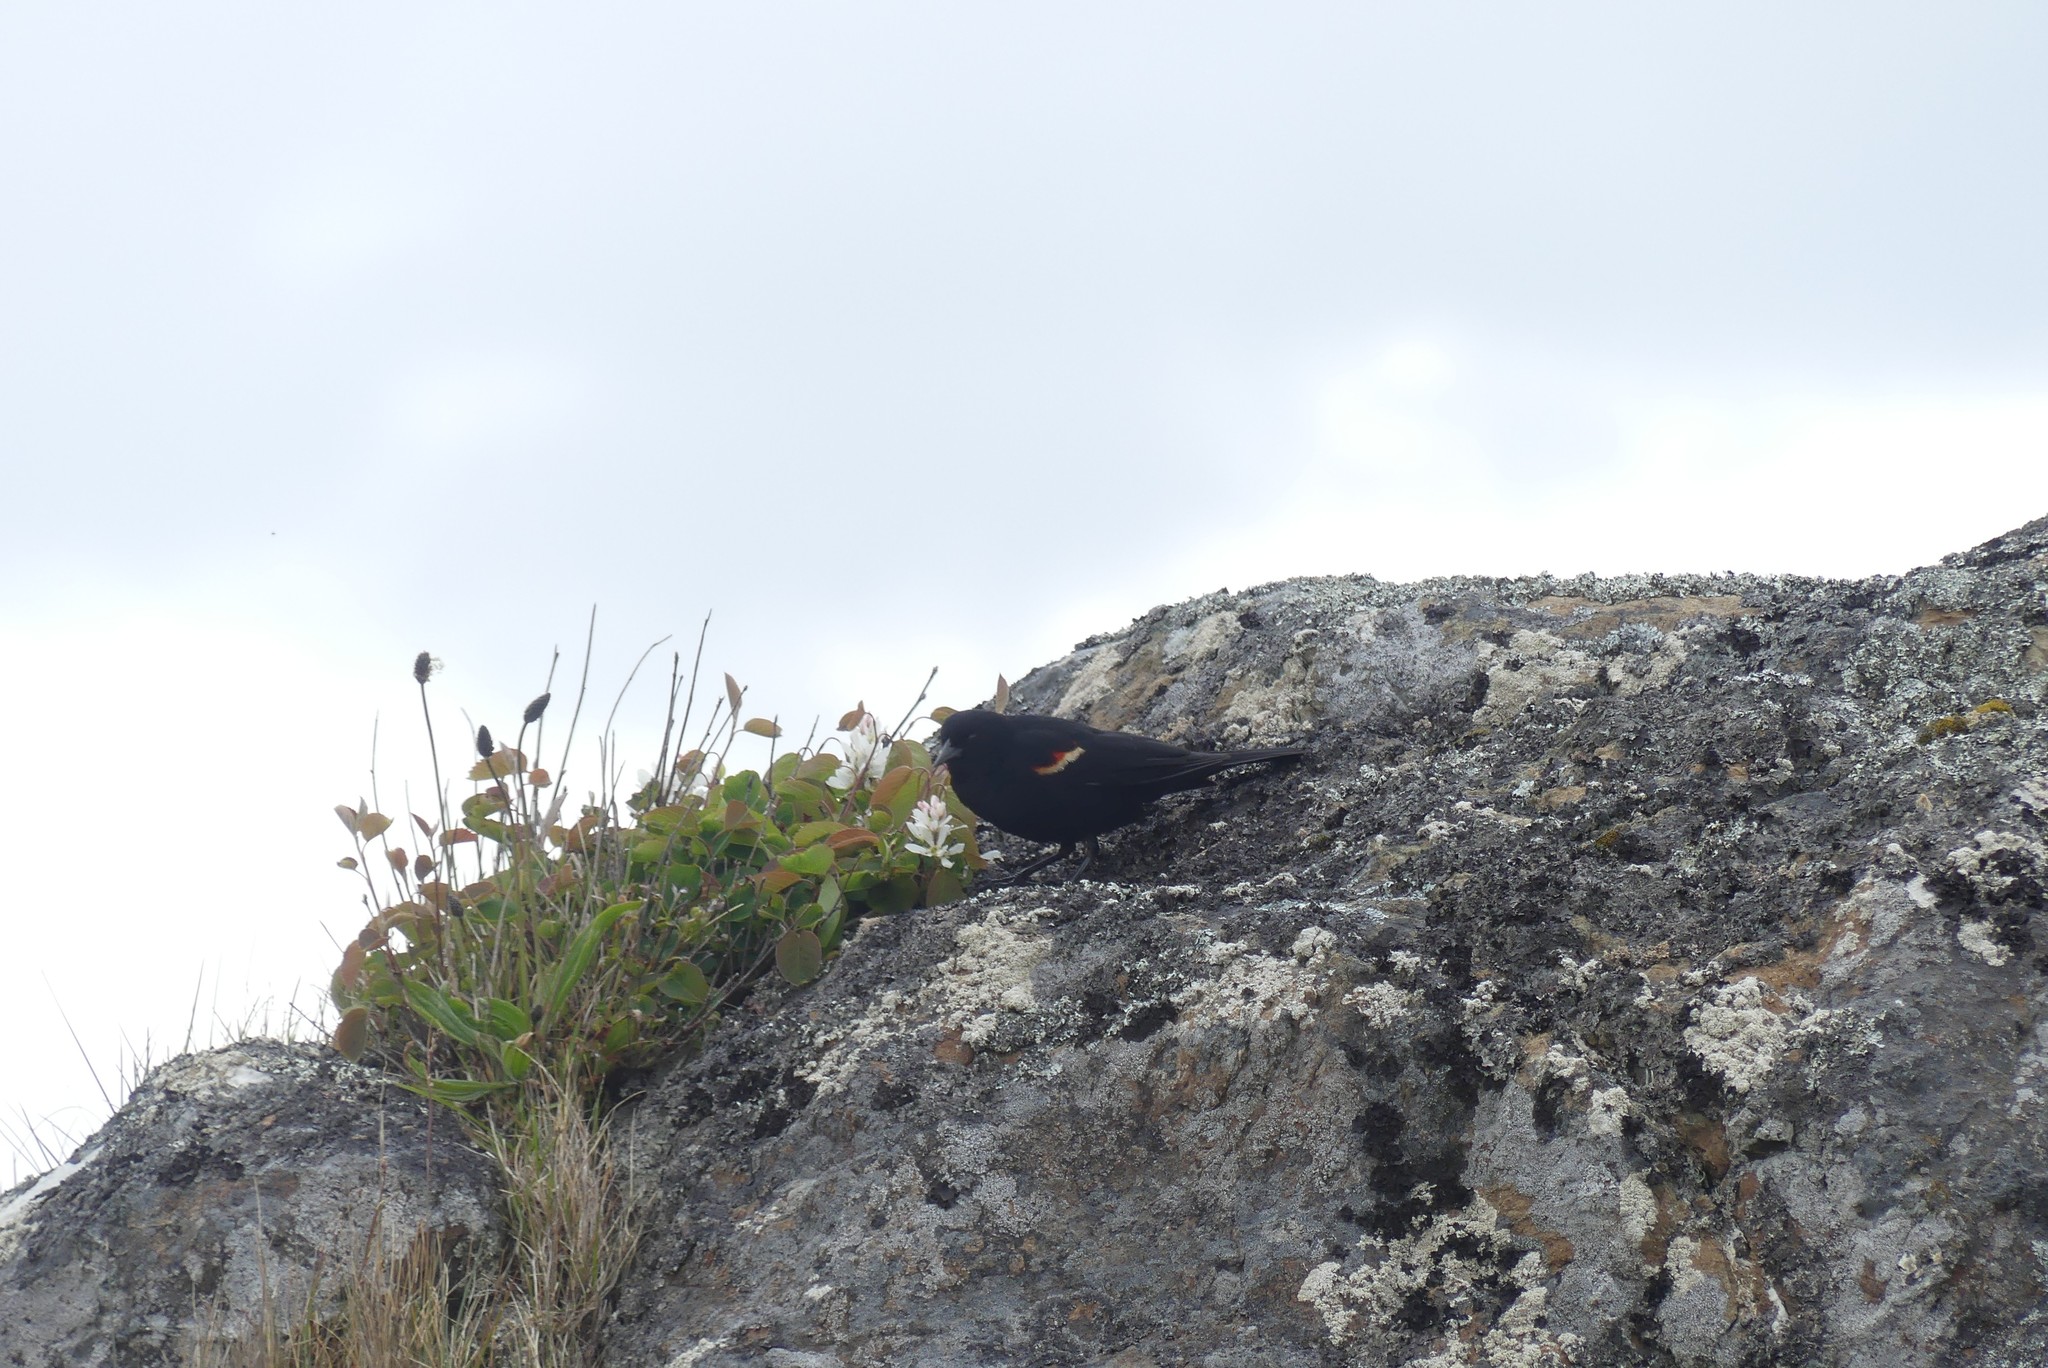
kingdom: Animalia
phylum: Chordata
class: Aves
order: Passeriformes
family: Icteridae
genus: Agelaius
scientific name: Agelaius phoeniceus
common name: Red-winged blackbird
